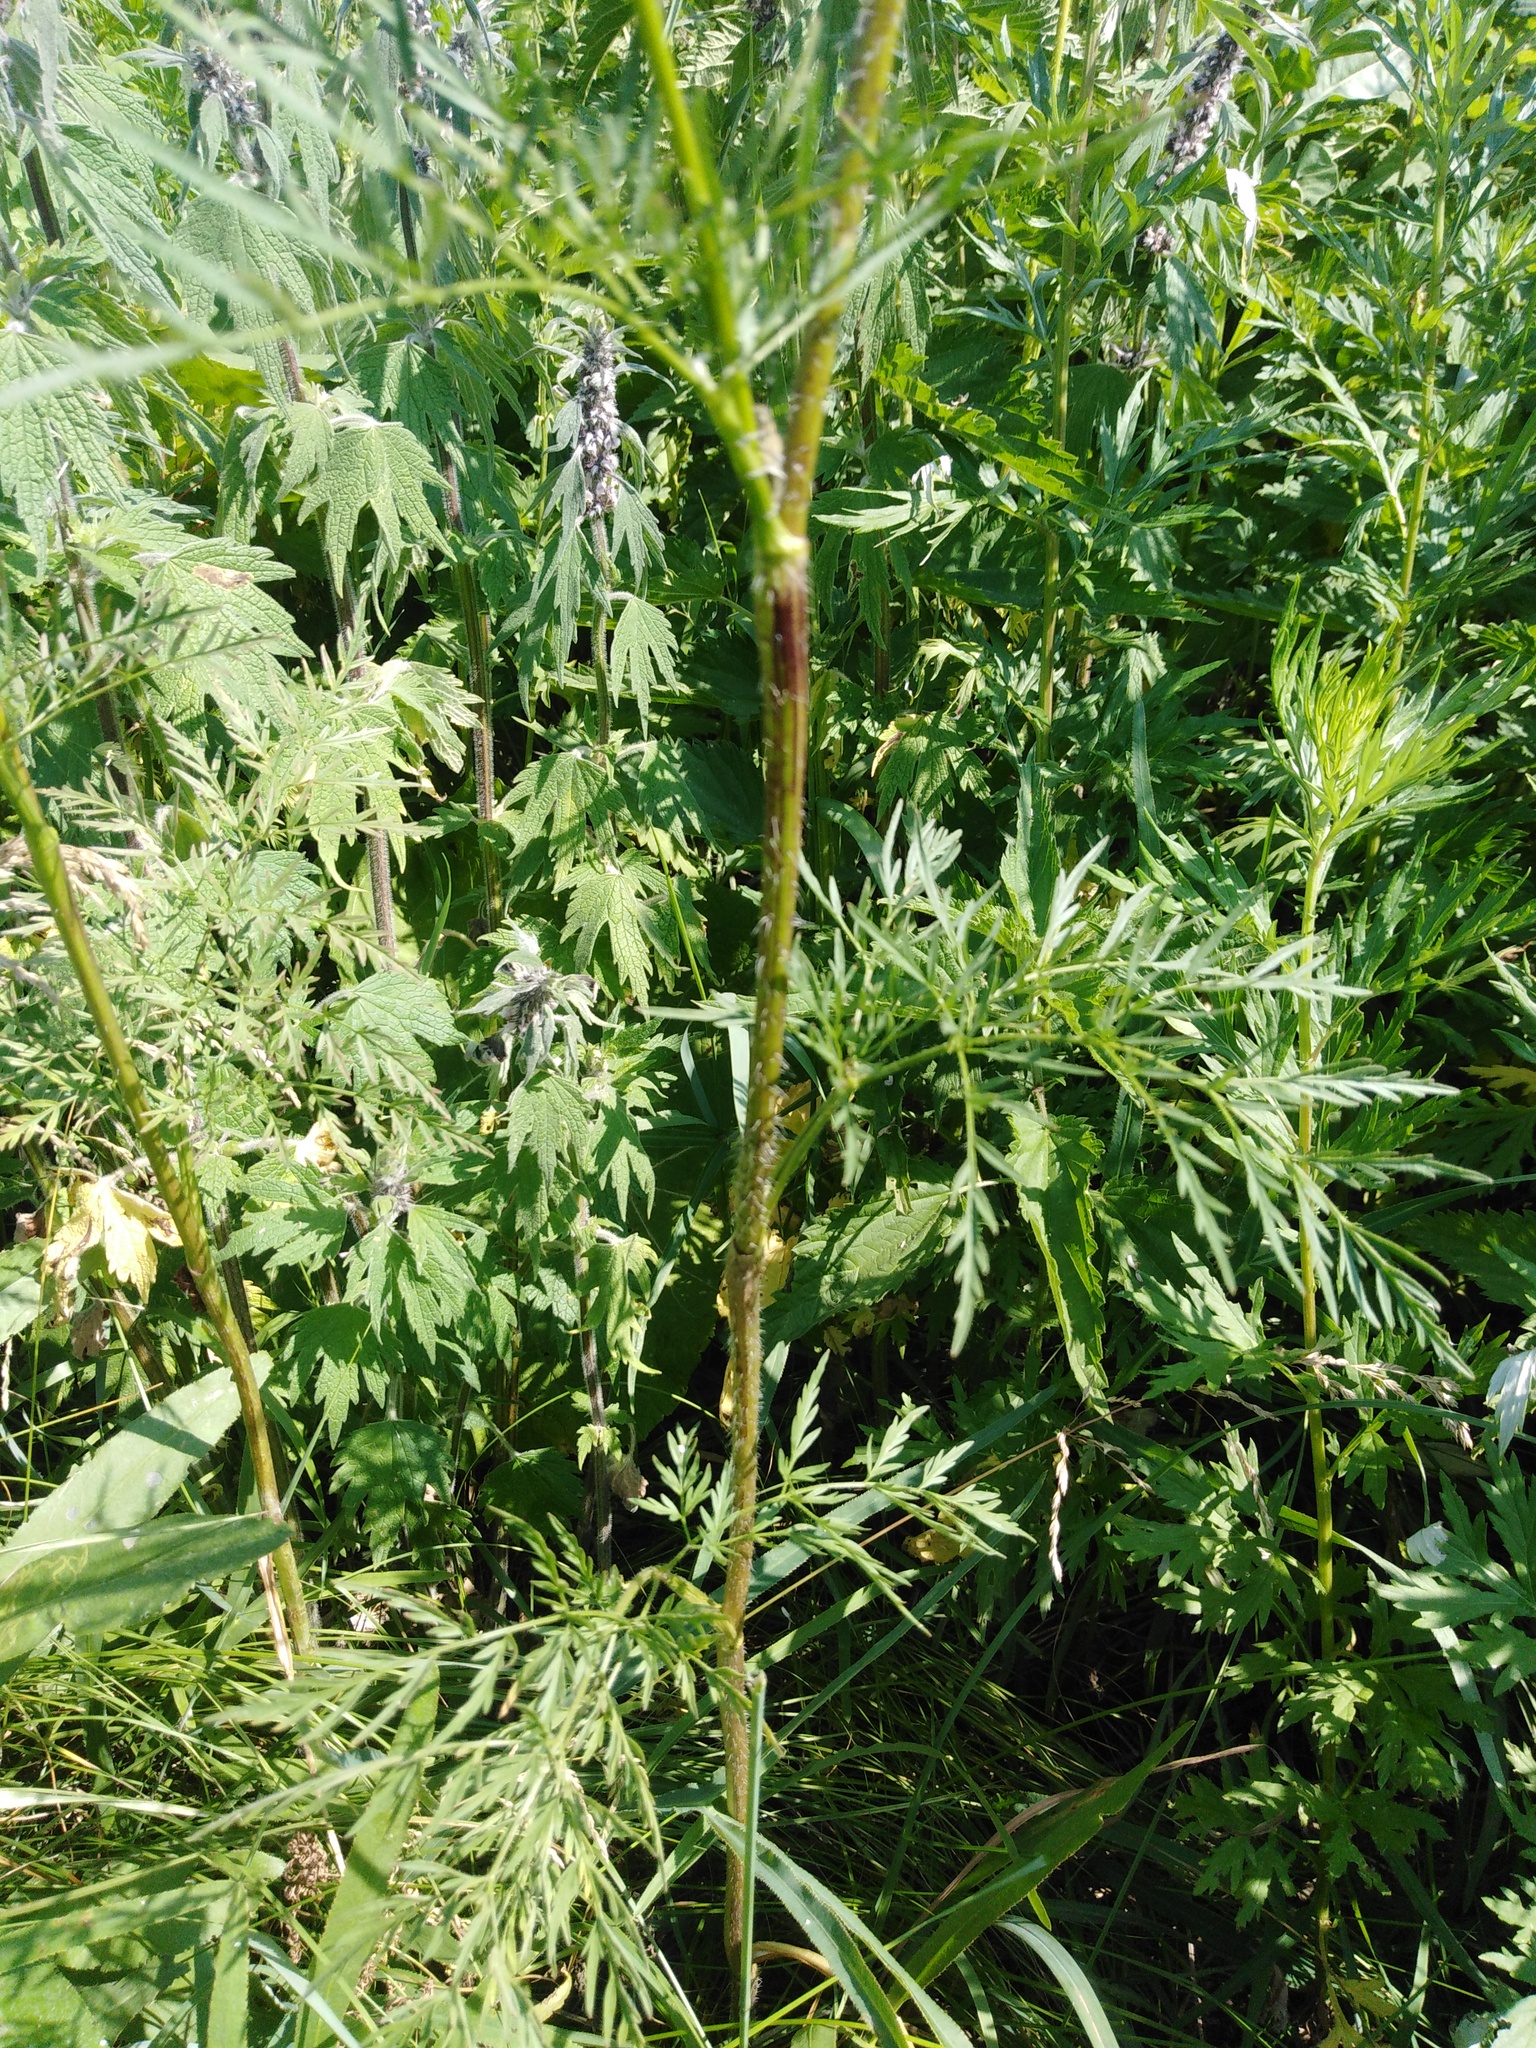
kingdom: Plantae
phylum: Tracheophyta
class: Magnoliopsida
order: Apiales
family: Apiaceae
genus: Chaerophyllum
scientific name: Chaerophyllum prescottii
